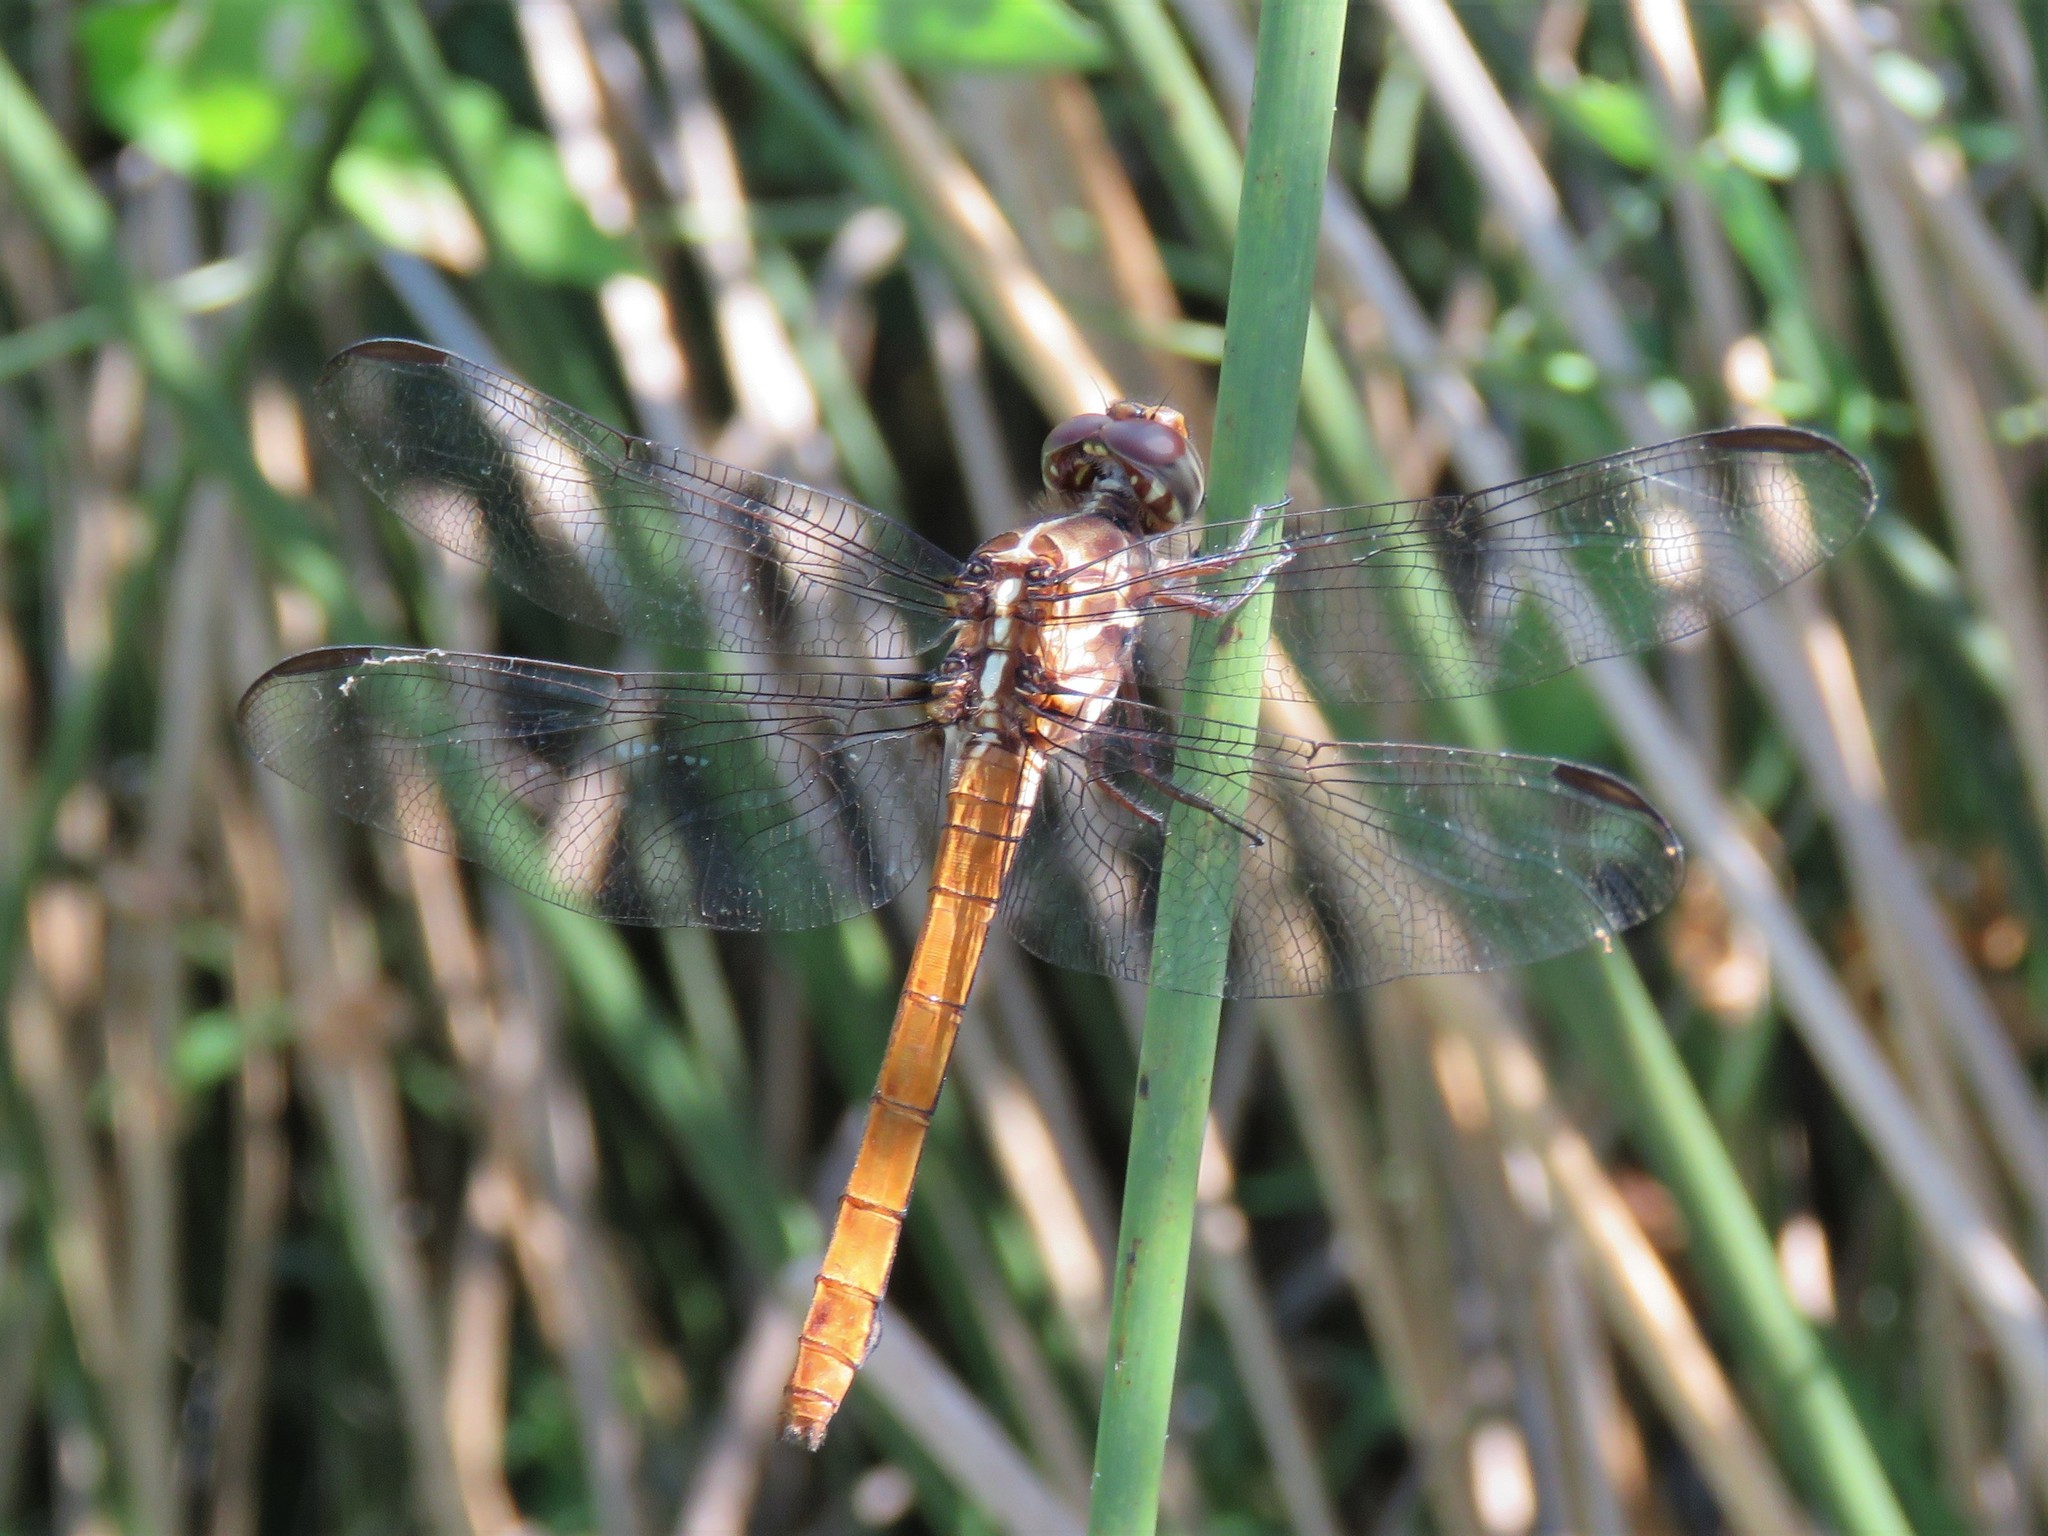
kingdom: Animalia
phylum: Arthropoda
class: Insecta
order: Odonata
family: Libellulidae
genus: Orthemis
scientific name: Orthemis ferruginea
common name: Roseate skimmer
